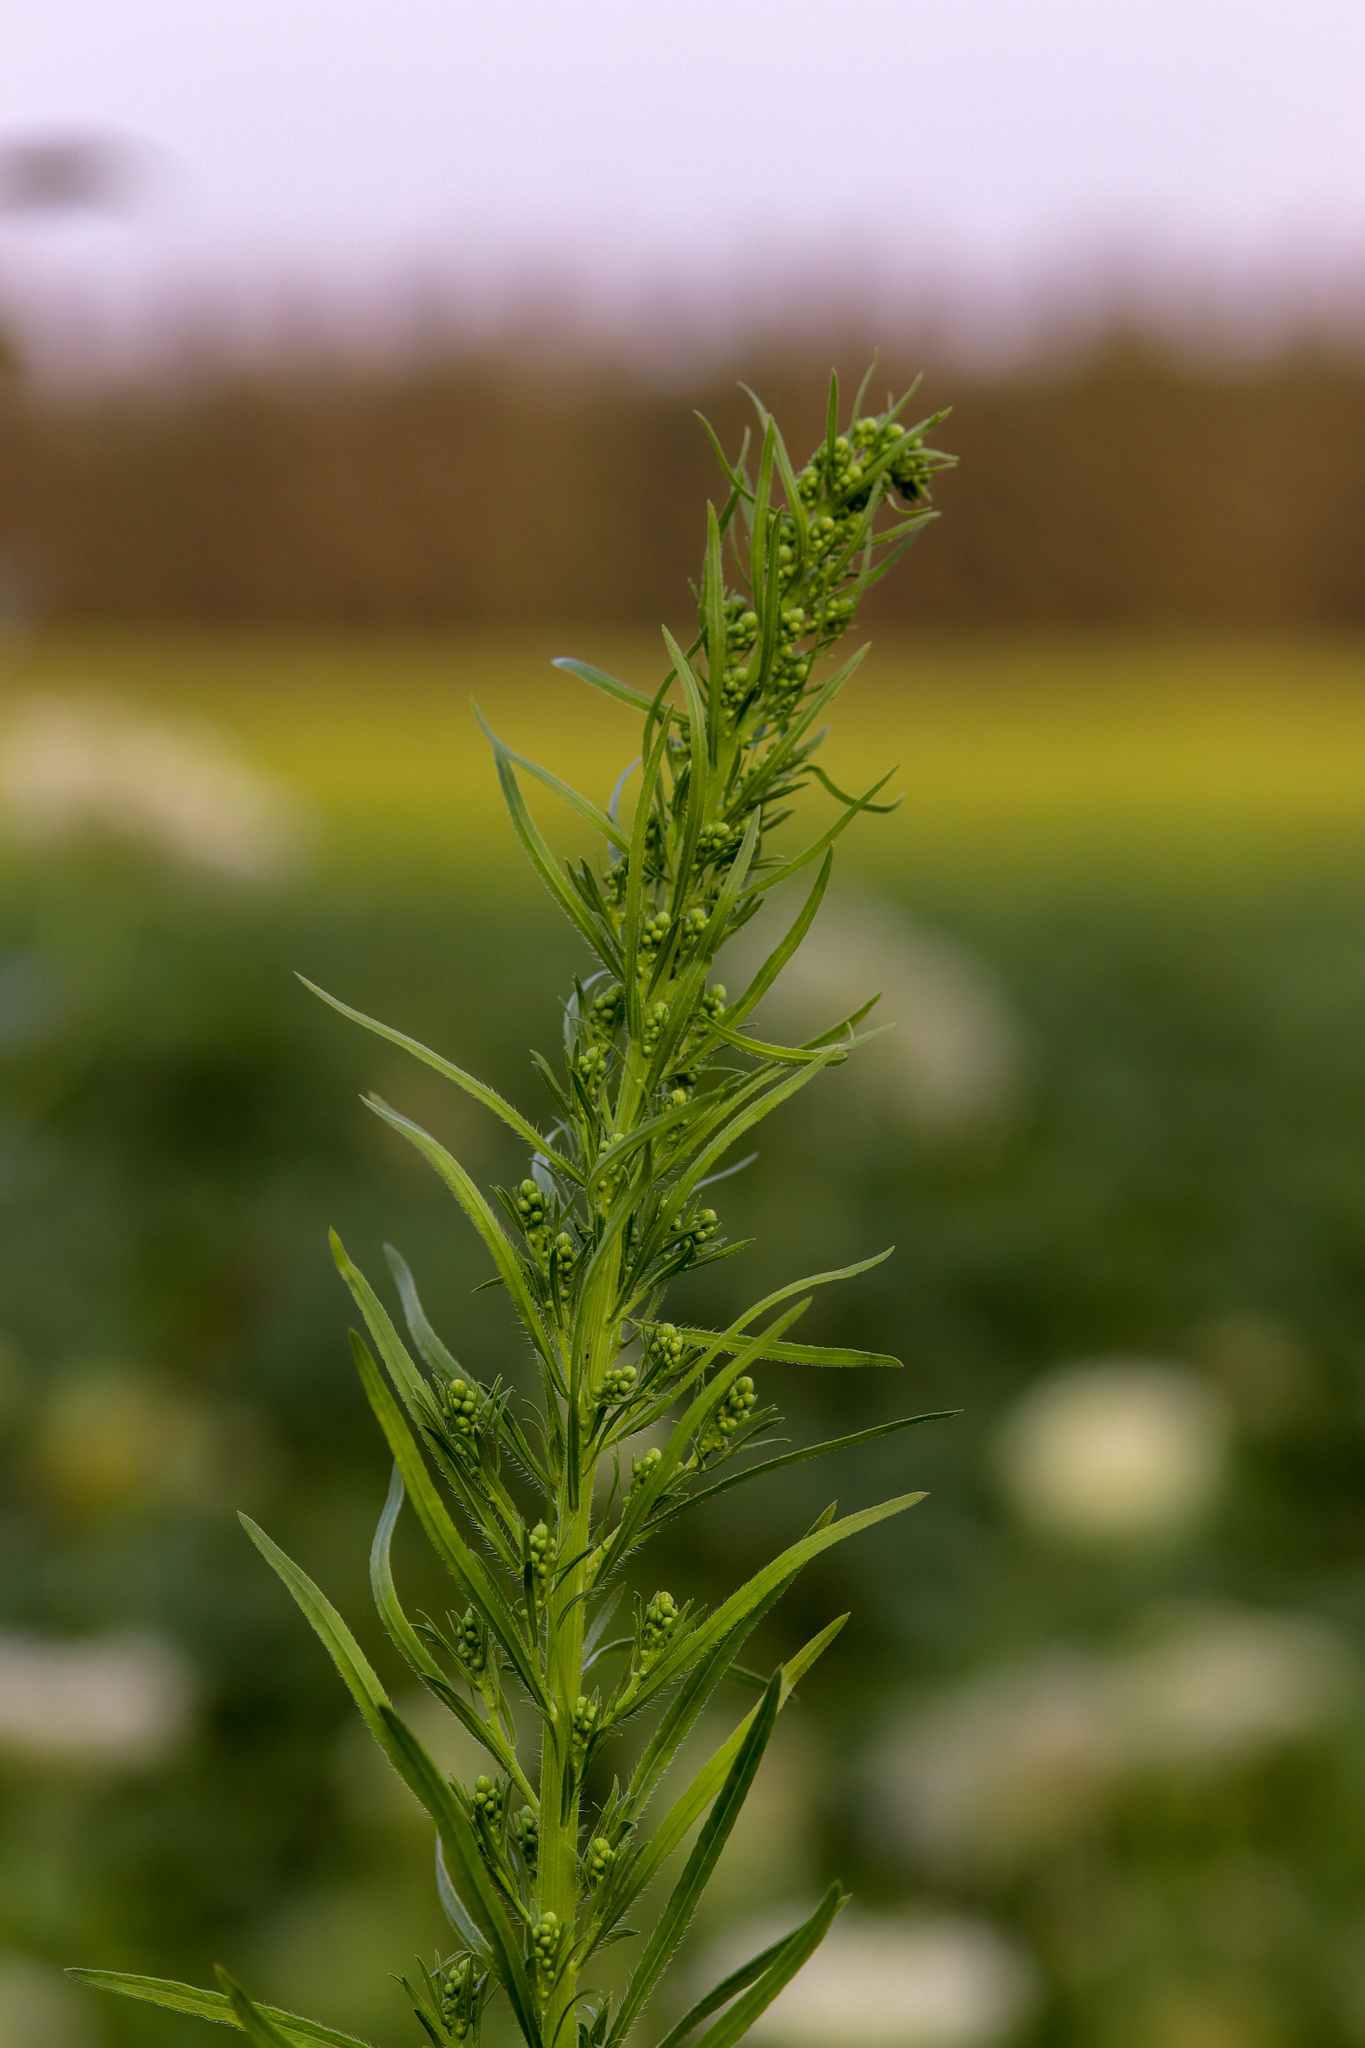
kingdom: Plantae
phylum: Tracheophyta
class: Magnoliopsida
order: Asterales
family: Asteraceae
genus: Erigeron
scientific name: Erigeron canadensis
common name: Canadian fleabane
